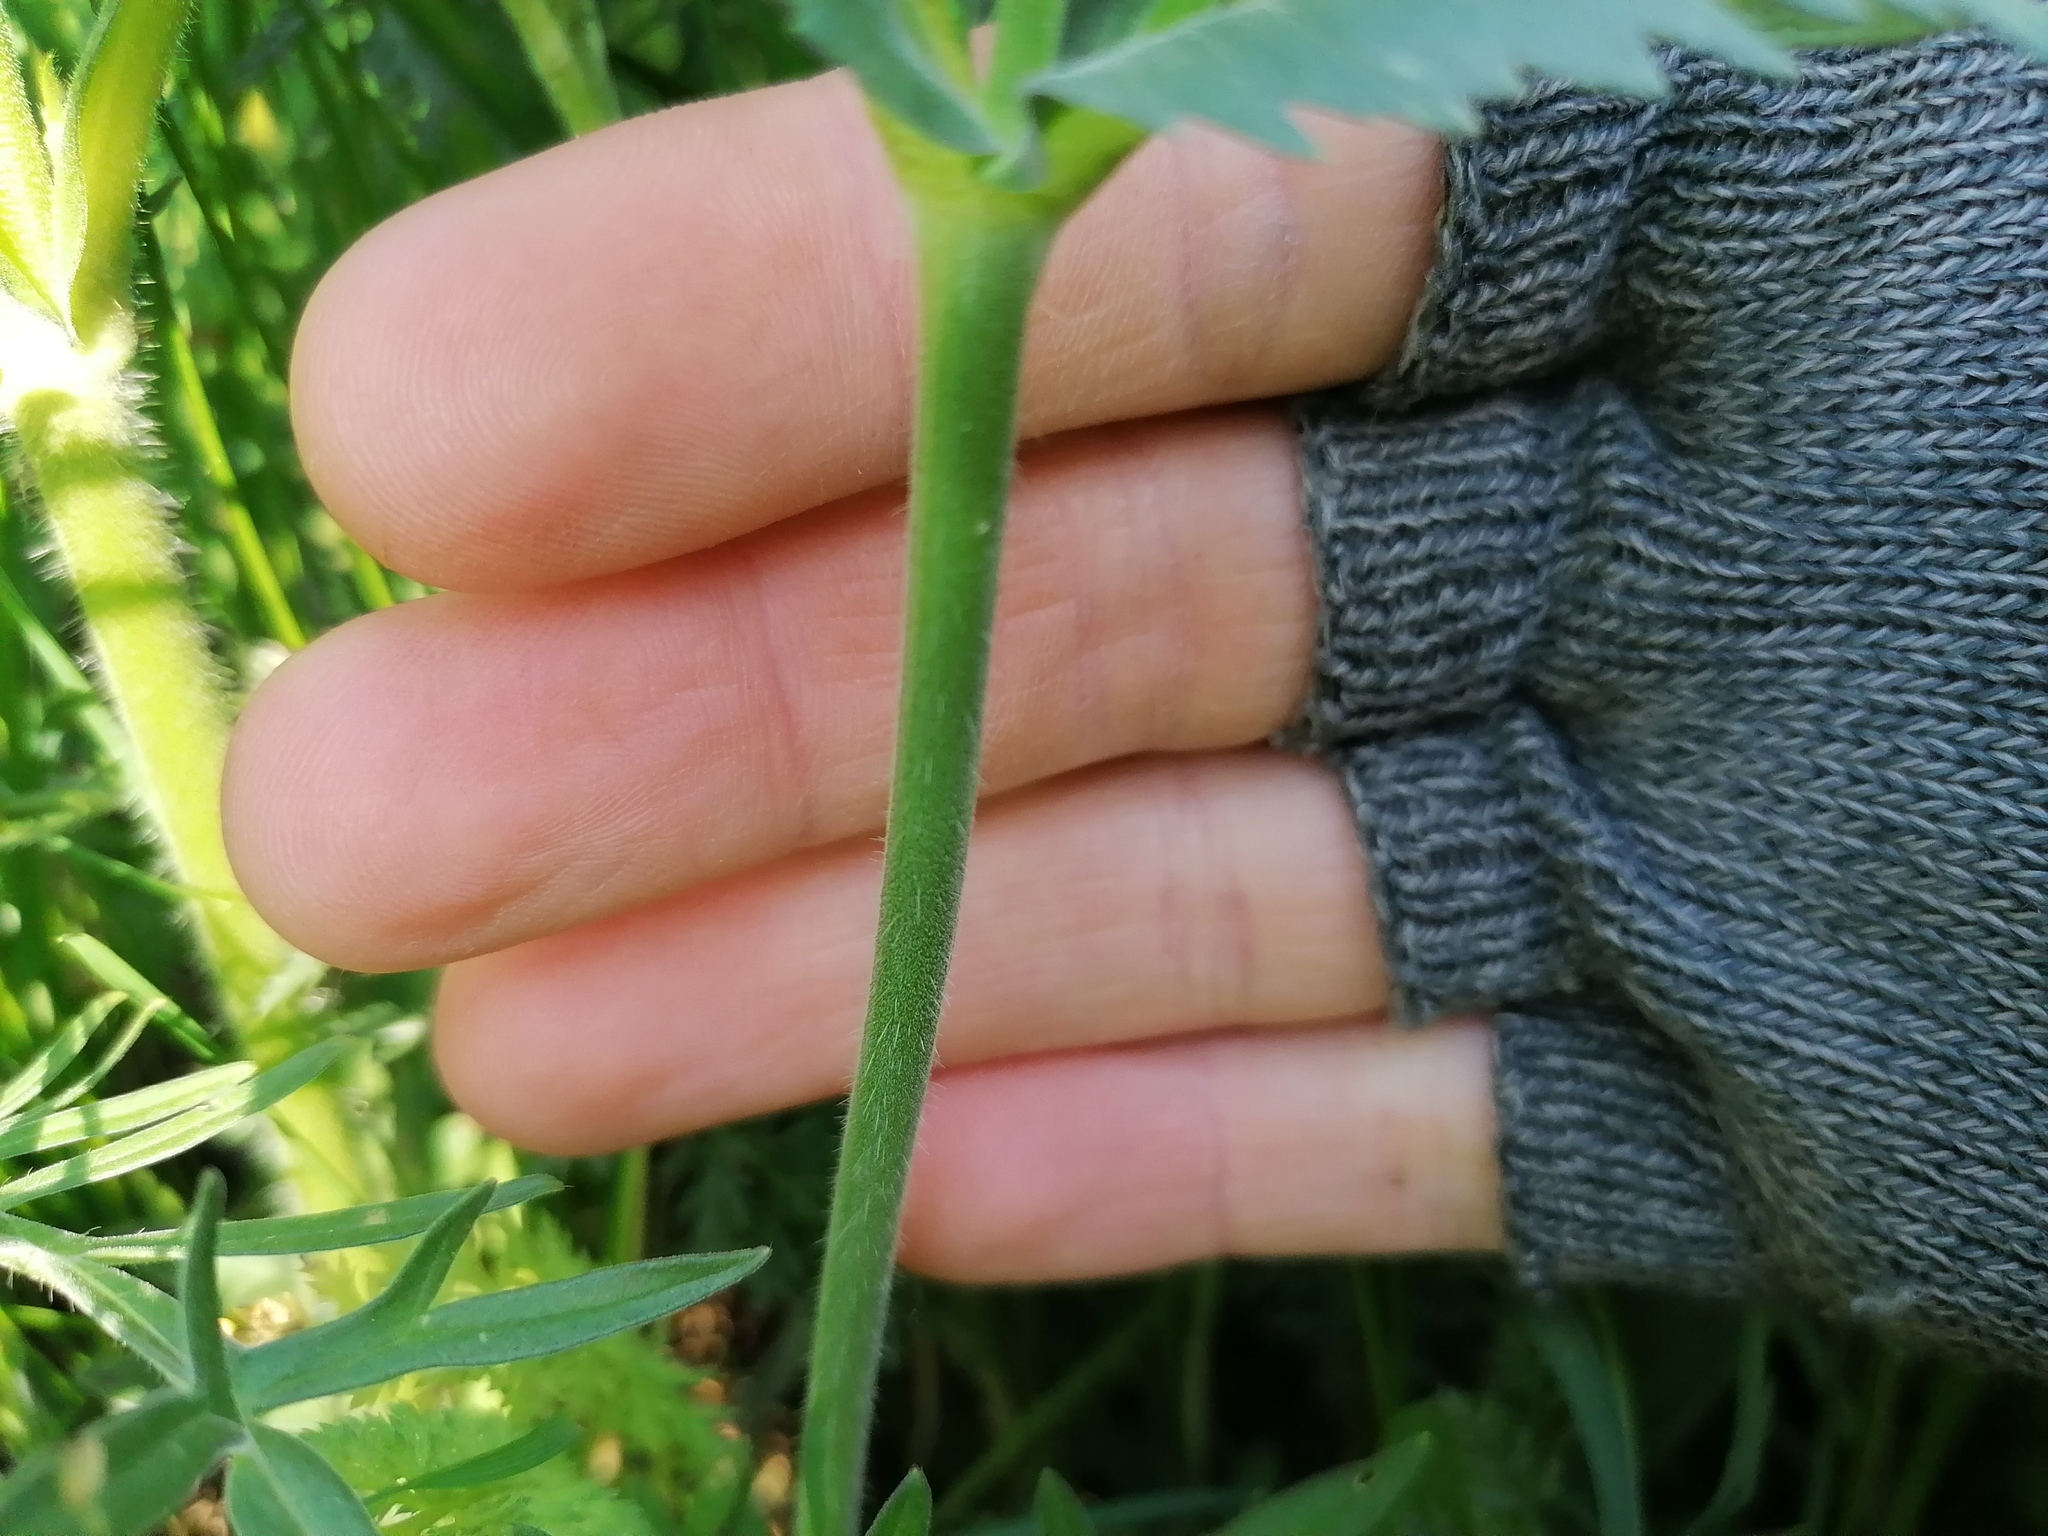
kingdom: Plantae
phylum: Tracheophyta
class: Magnoliopsida
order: Dipsacales
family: Caprifoliaceae
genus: Knautia
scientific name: Knautia arvensis
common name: Field scabiosa
